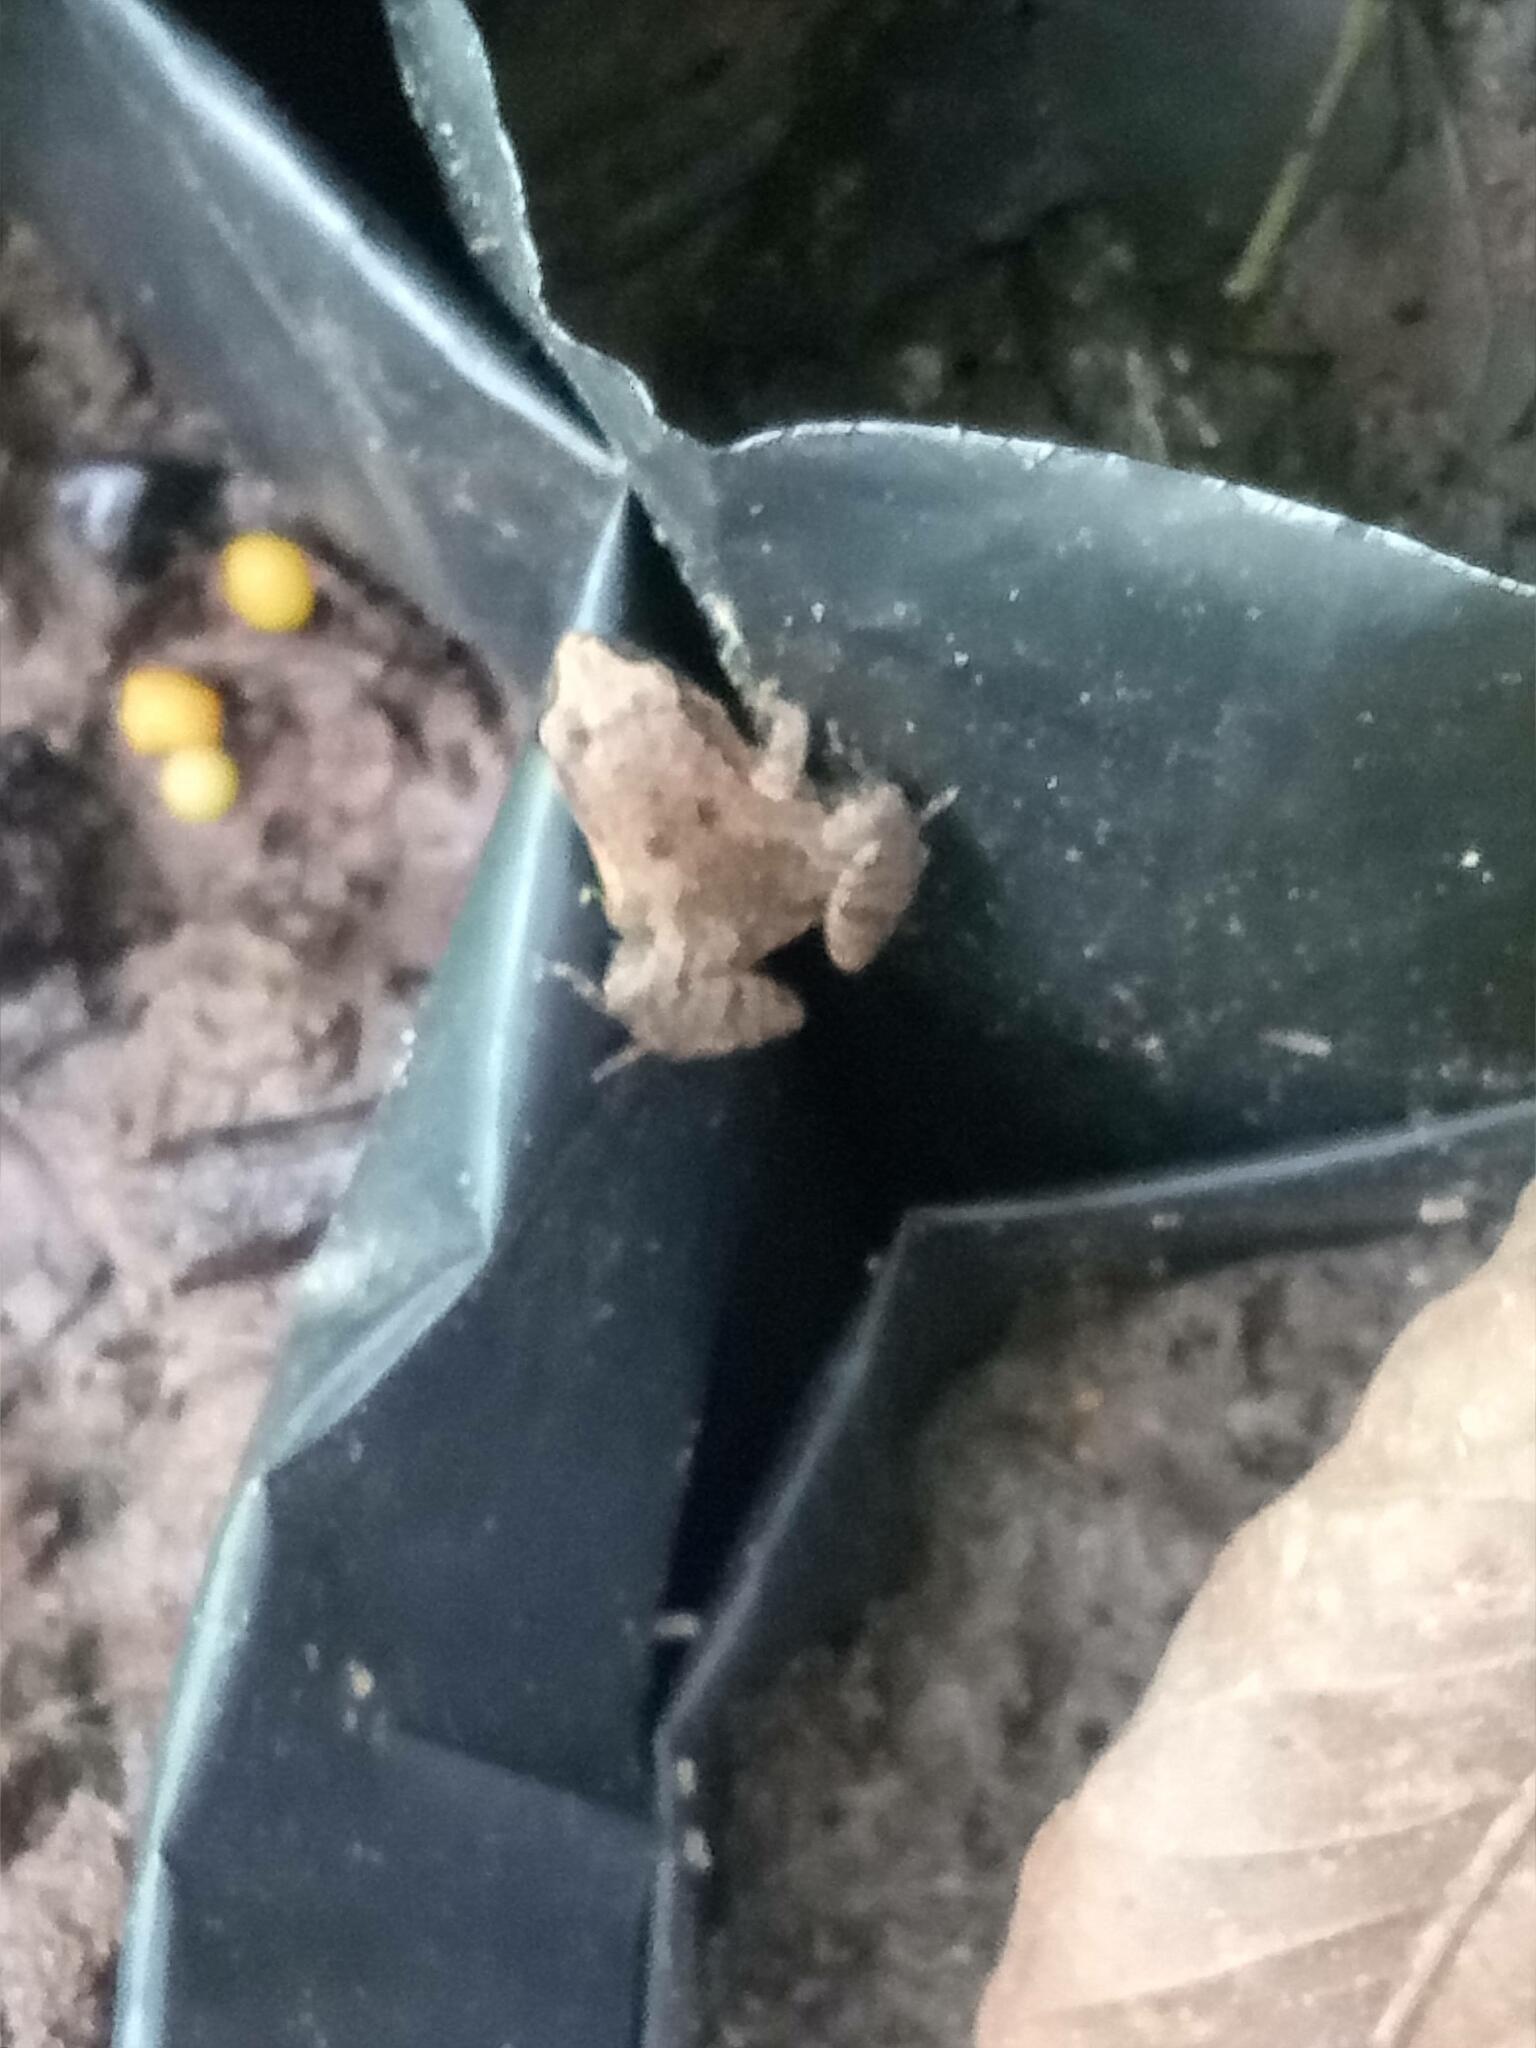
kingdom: Animalia
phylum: Chordata
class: Amphibia
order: Anura
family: Microhylidae
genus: Microhyla
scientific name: Microhyla mukhlesuri
